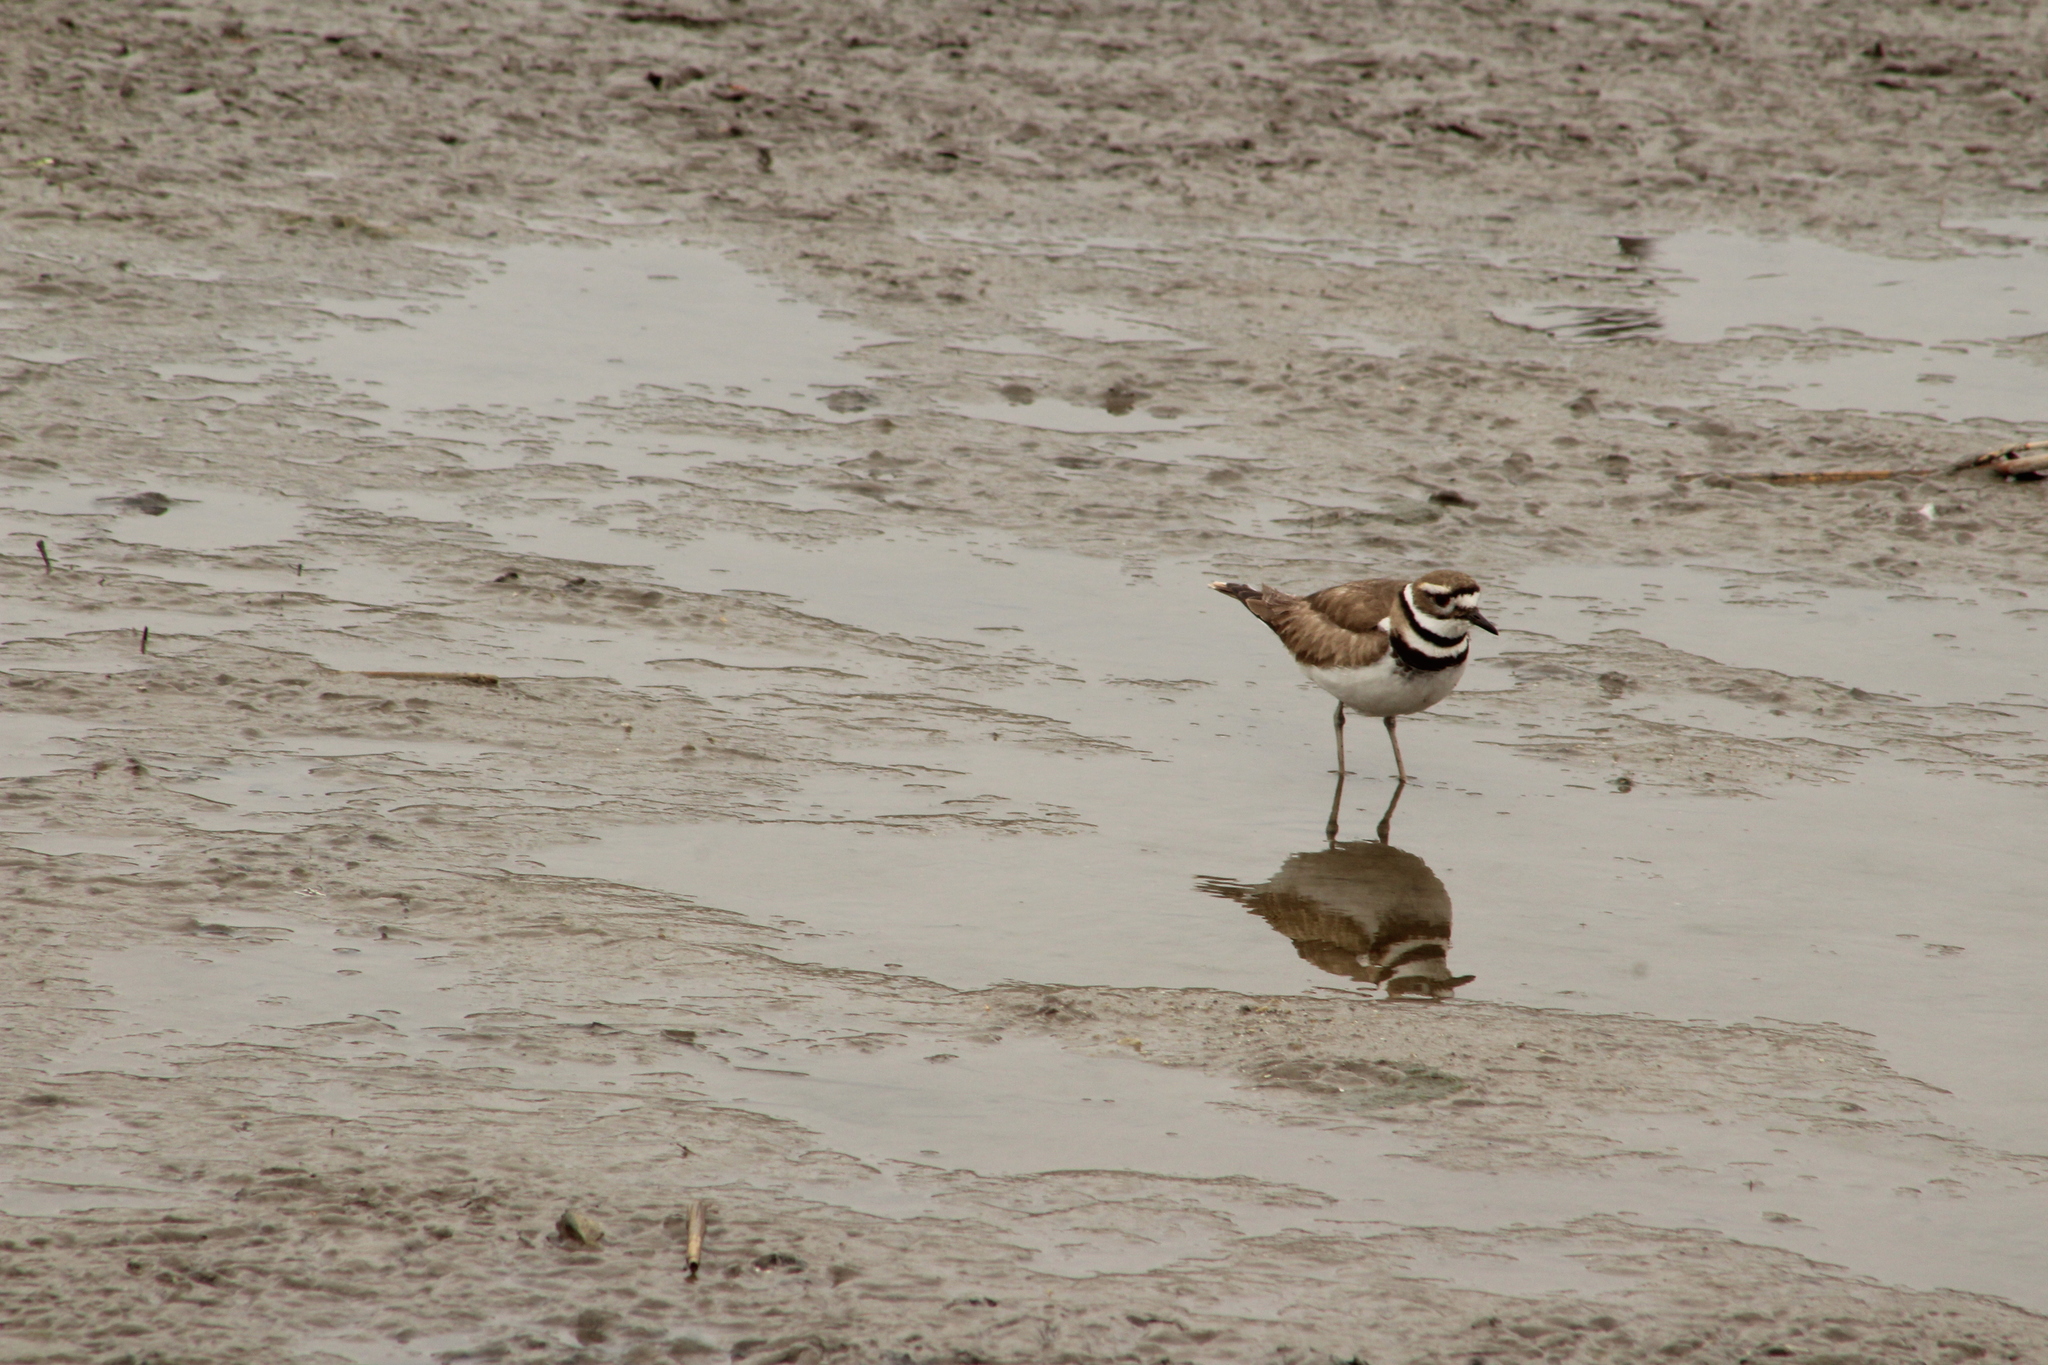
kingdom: Animalia
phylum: Chordata
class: Aves
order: Charadriiformes
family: Charadriidae
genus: Charadrius
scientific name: Charadrius vociferus
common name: Killdeer
